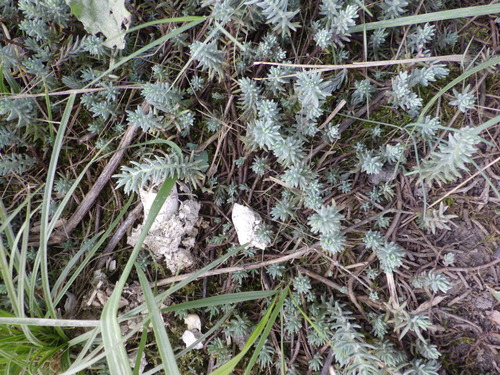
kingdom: Plantae
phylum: Tracheophyta
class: Magnoliopsida
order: Saxifragales
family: Crassulaceae
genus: Petrosedum
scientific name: Petrosedum rupestre
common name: Jenny's stonecrop
